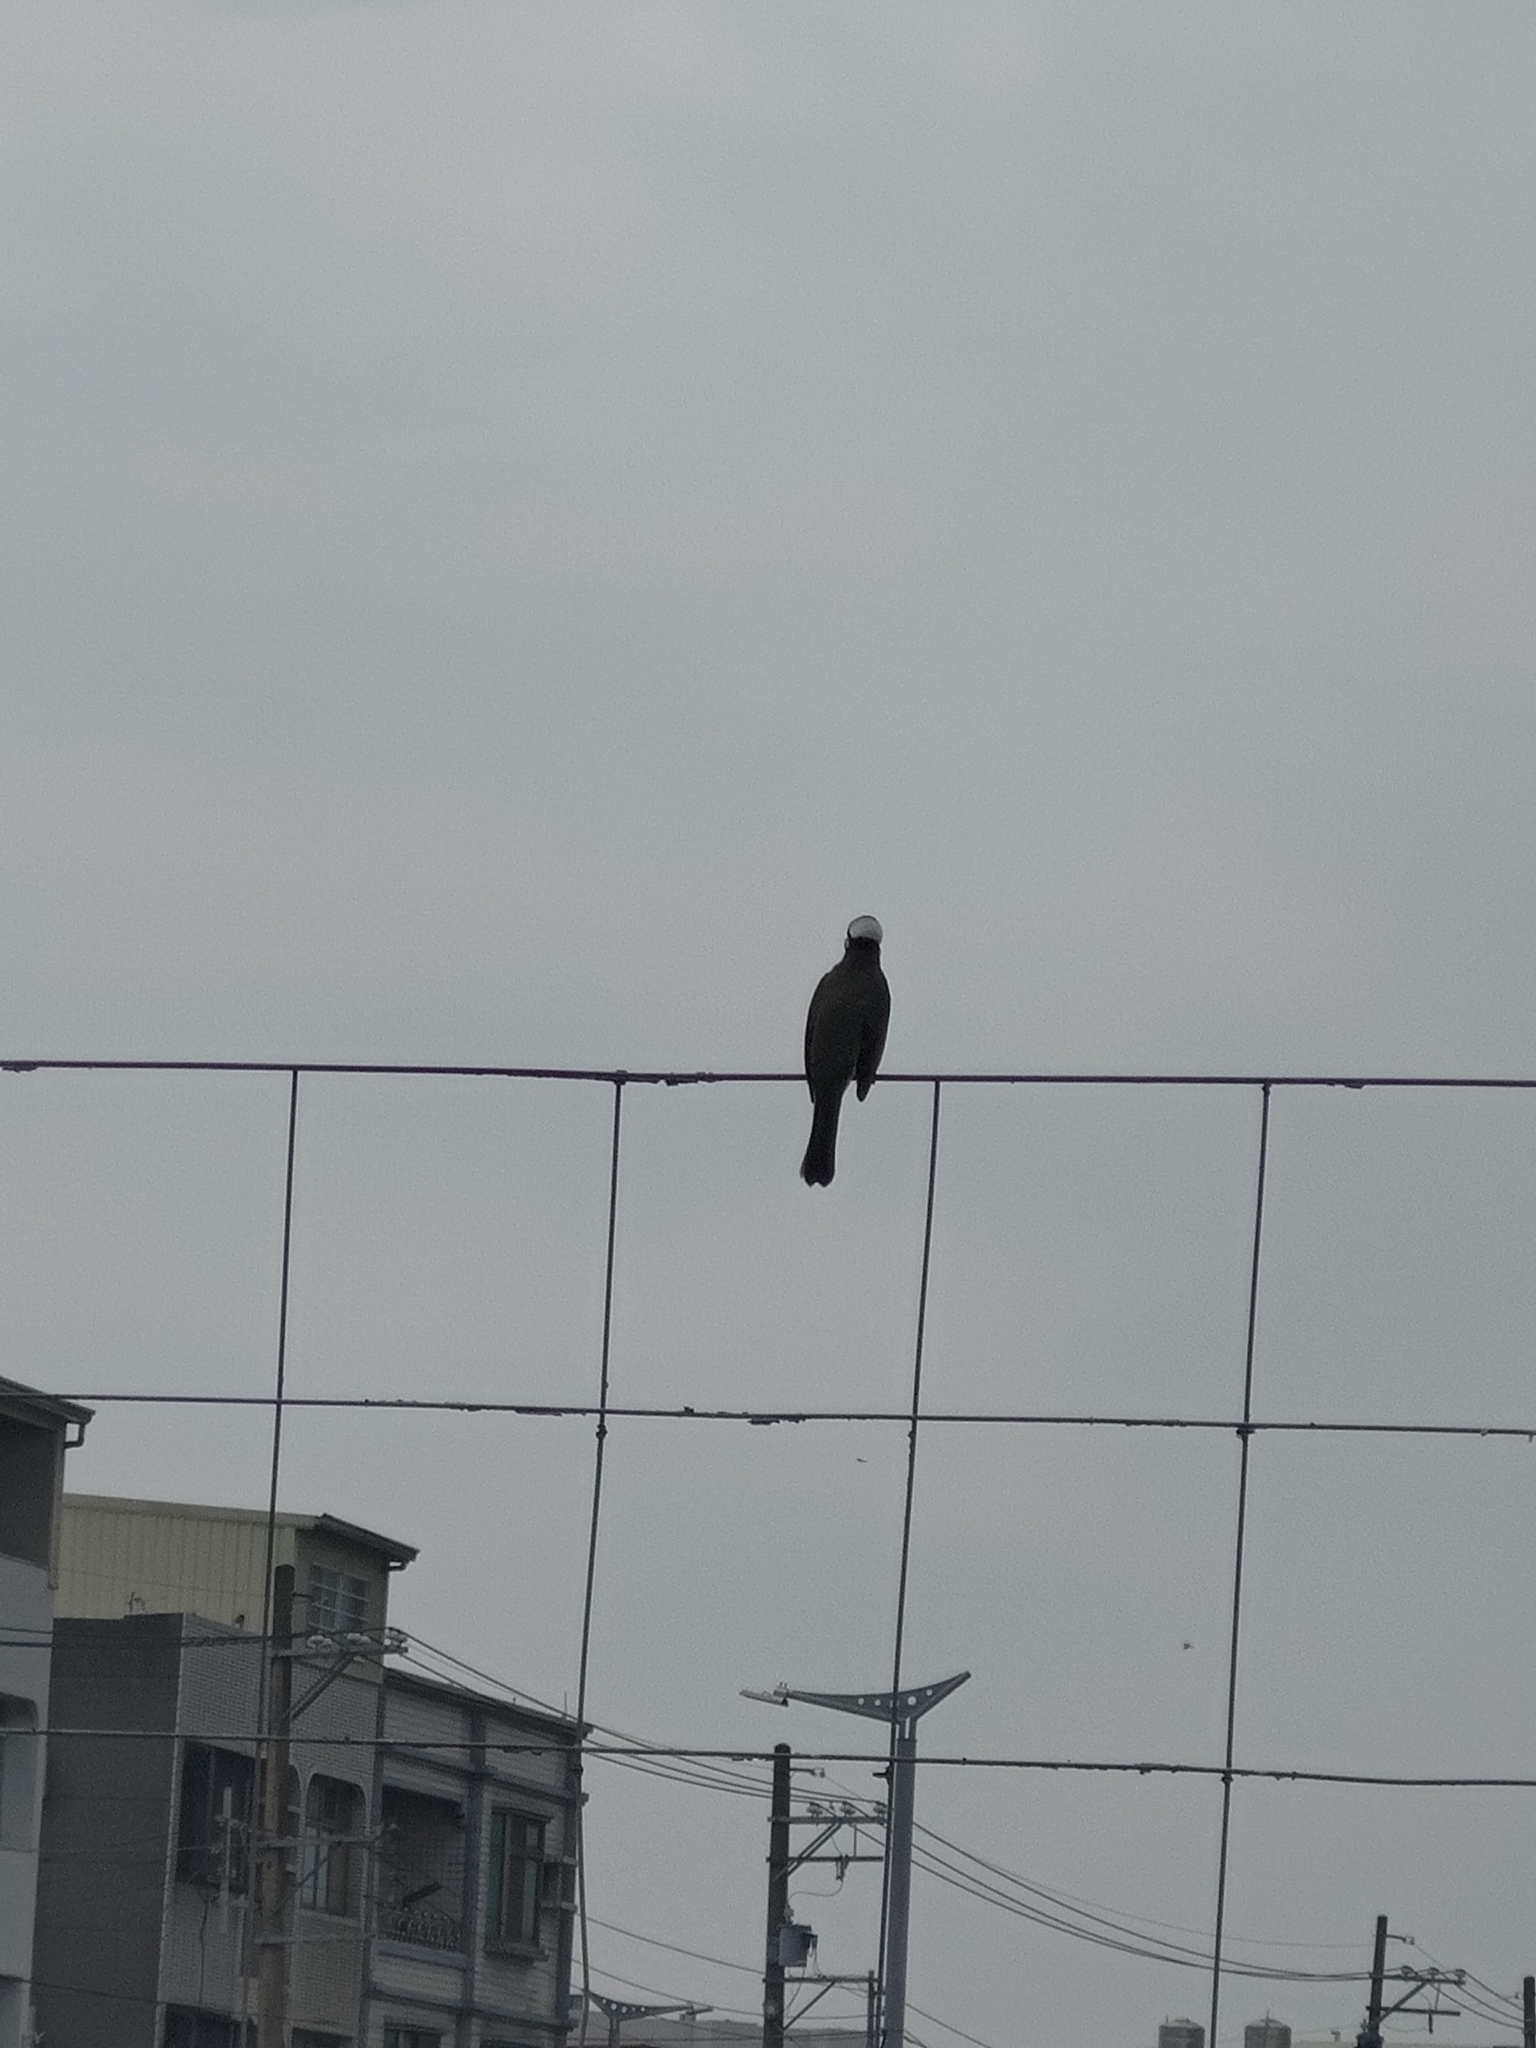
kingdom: Animalia
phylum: Chordata
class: Aves
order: Passeriformes
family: Pycnonotidae
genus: Pycnonotus
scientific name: Pycnonotus sinensis
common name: Light-vented bulbul
